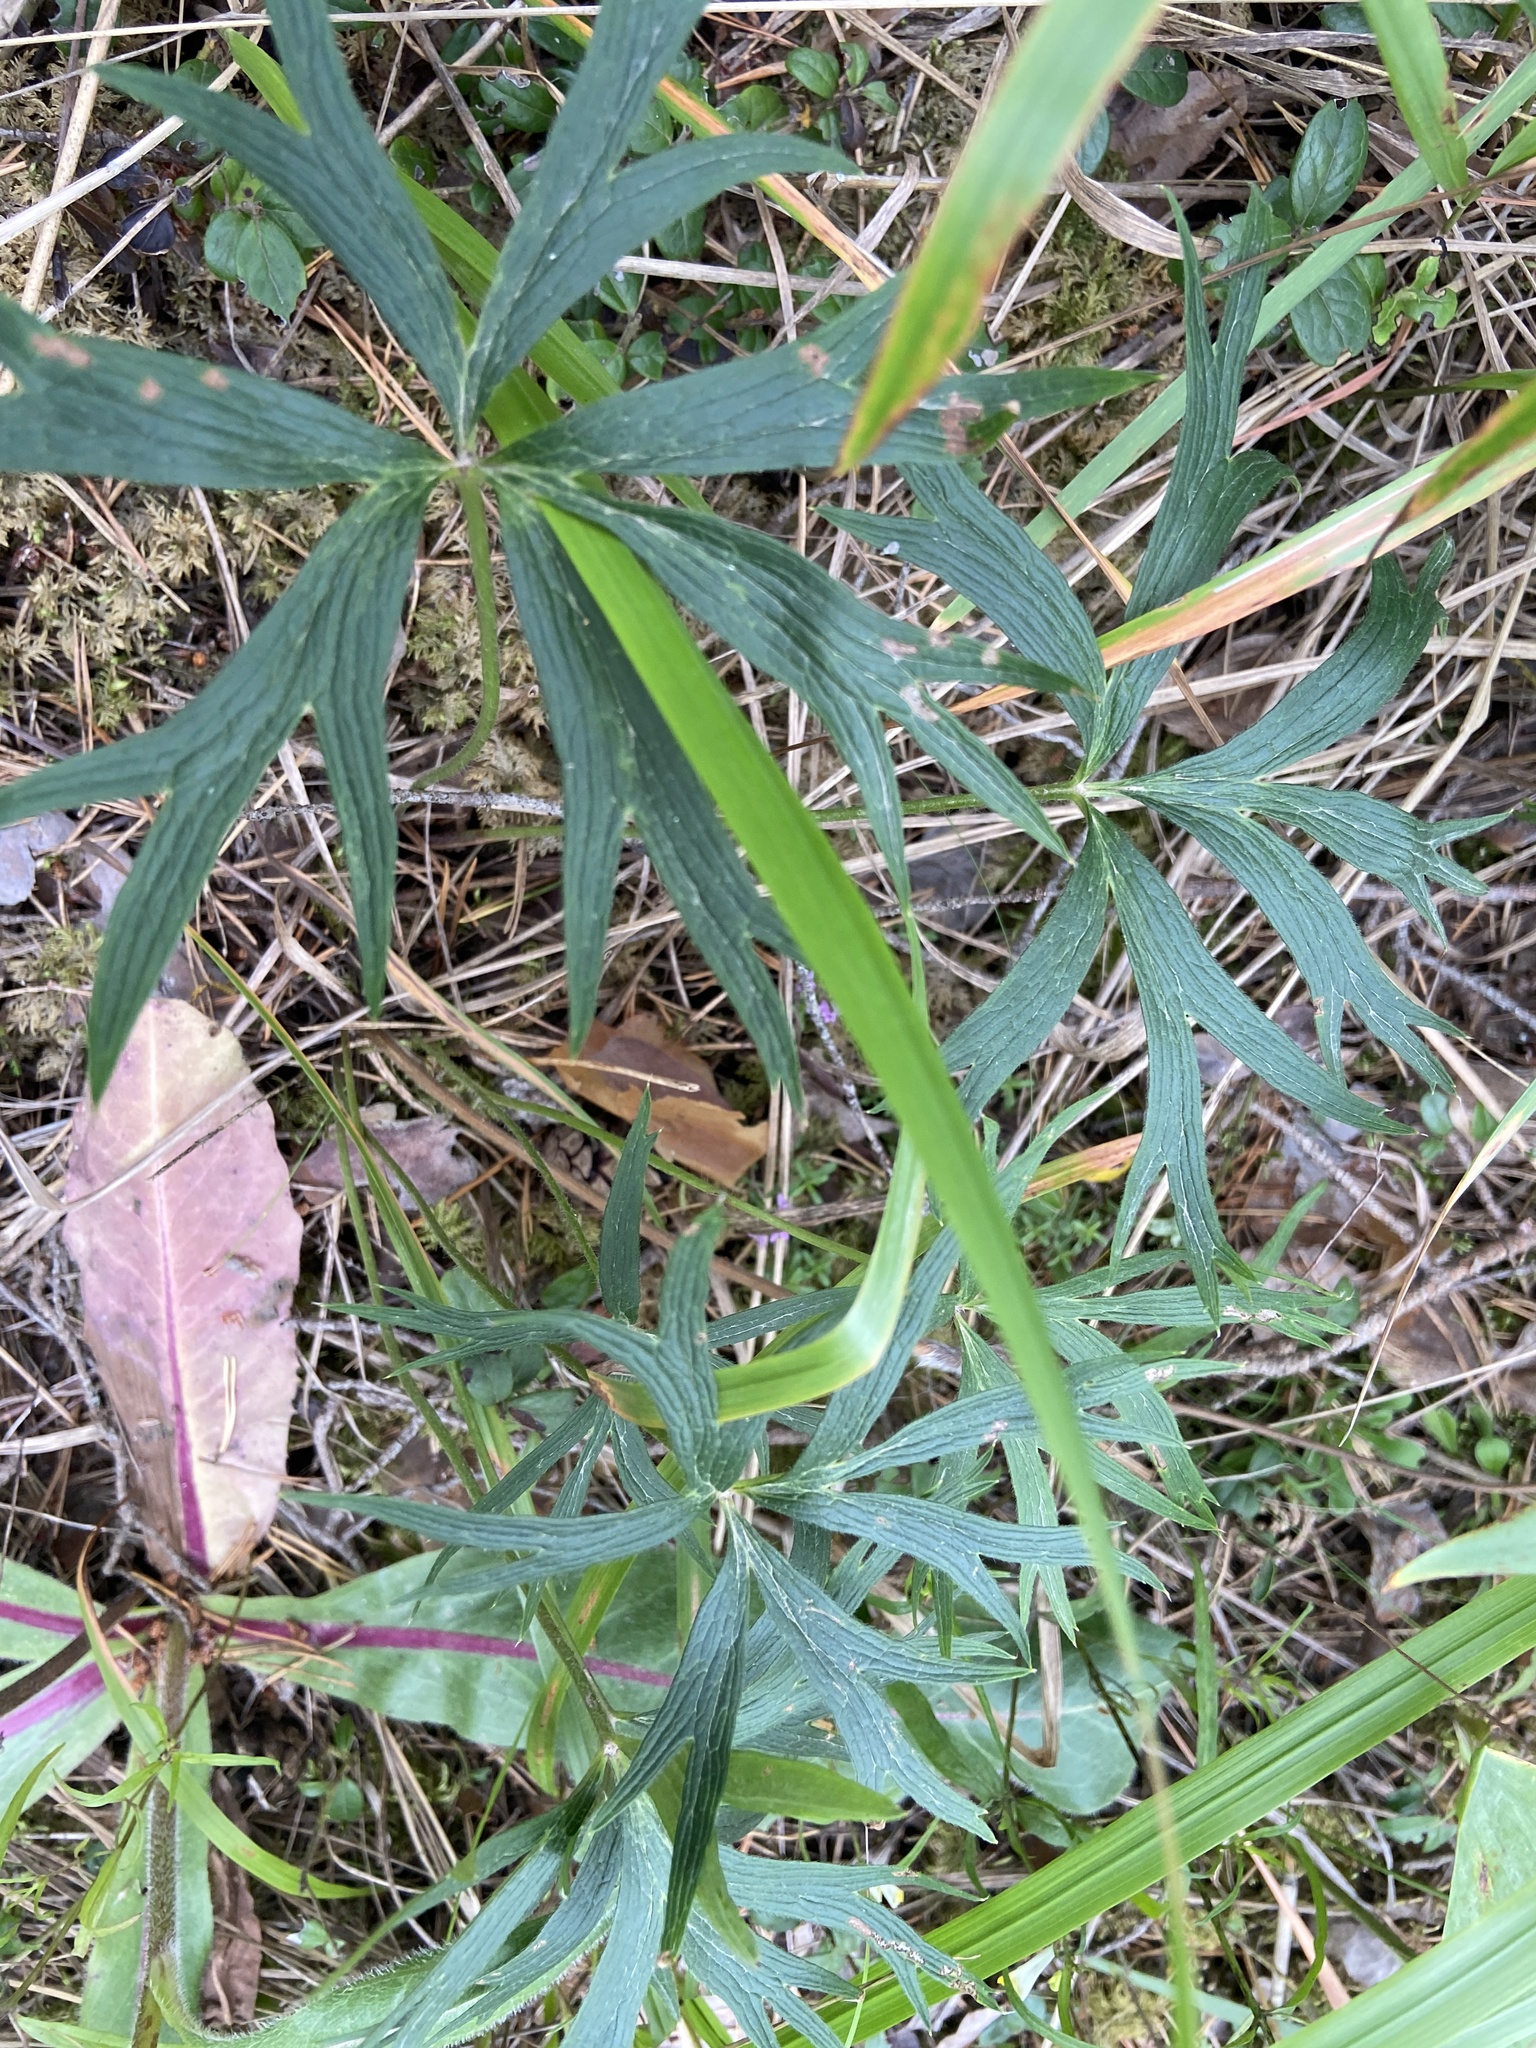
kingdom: Plantae
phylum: Tracheophyta
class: Magnoliopsida
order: Ranunculales
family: Ranunculaceae
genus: Pulsatilla
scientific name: Pulsatilla patens
